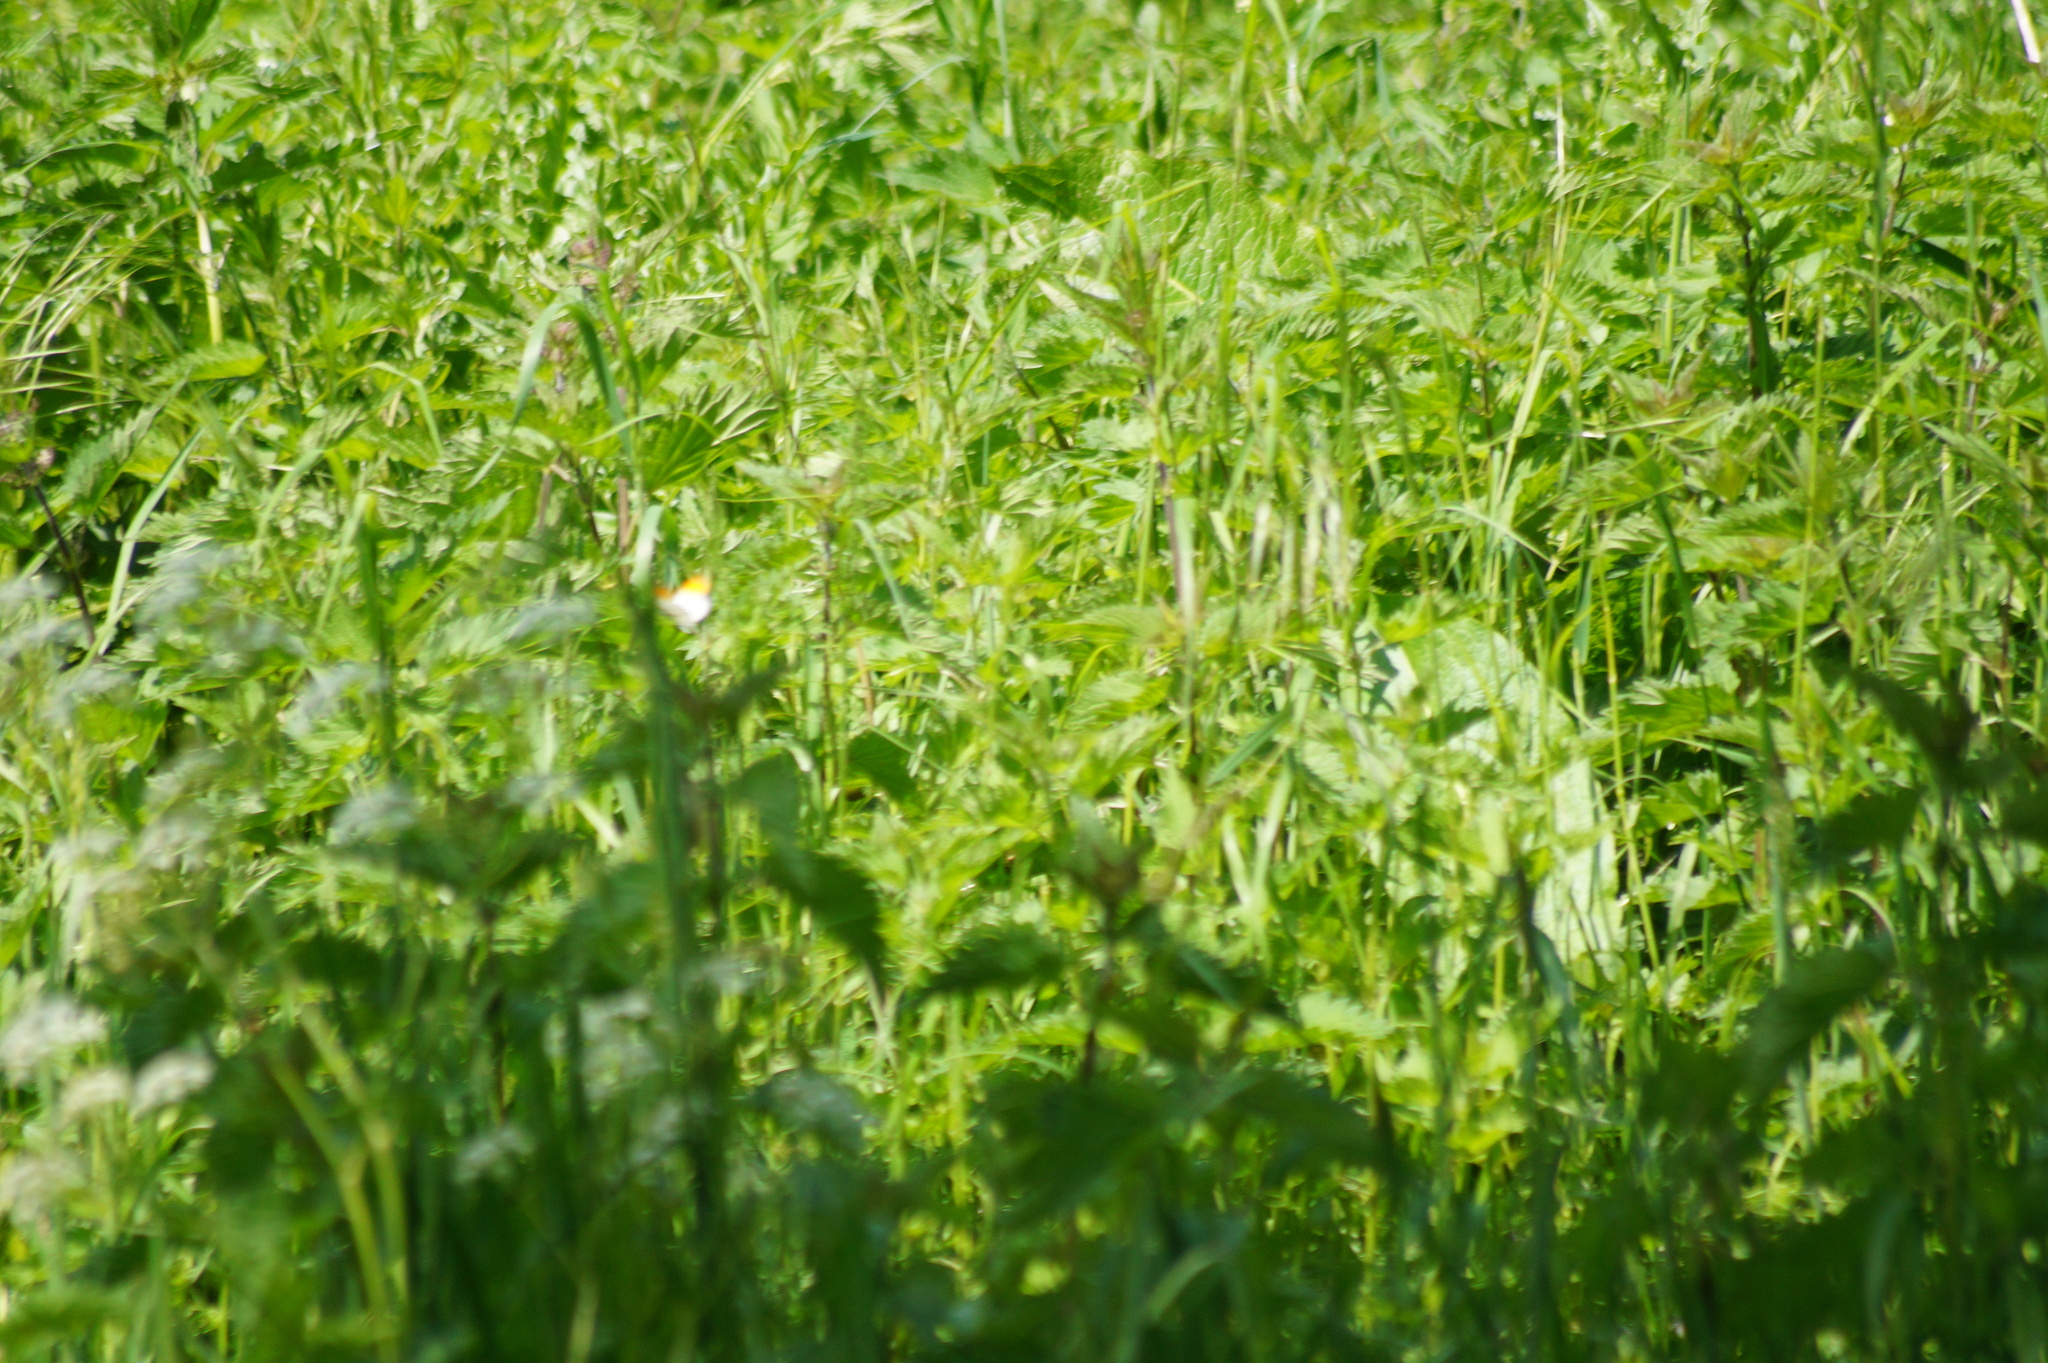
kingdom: Animalia
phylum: Arthropoda
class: Insecta
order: Lepidoptera
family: Pieridae
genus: Anthocharis
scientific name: Anthocharis cardamines
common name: Orange-tip
